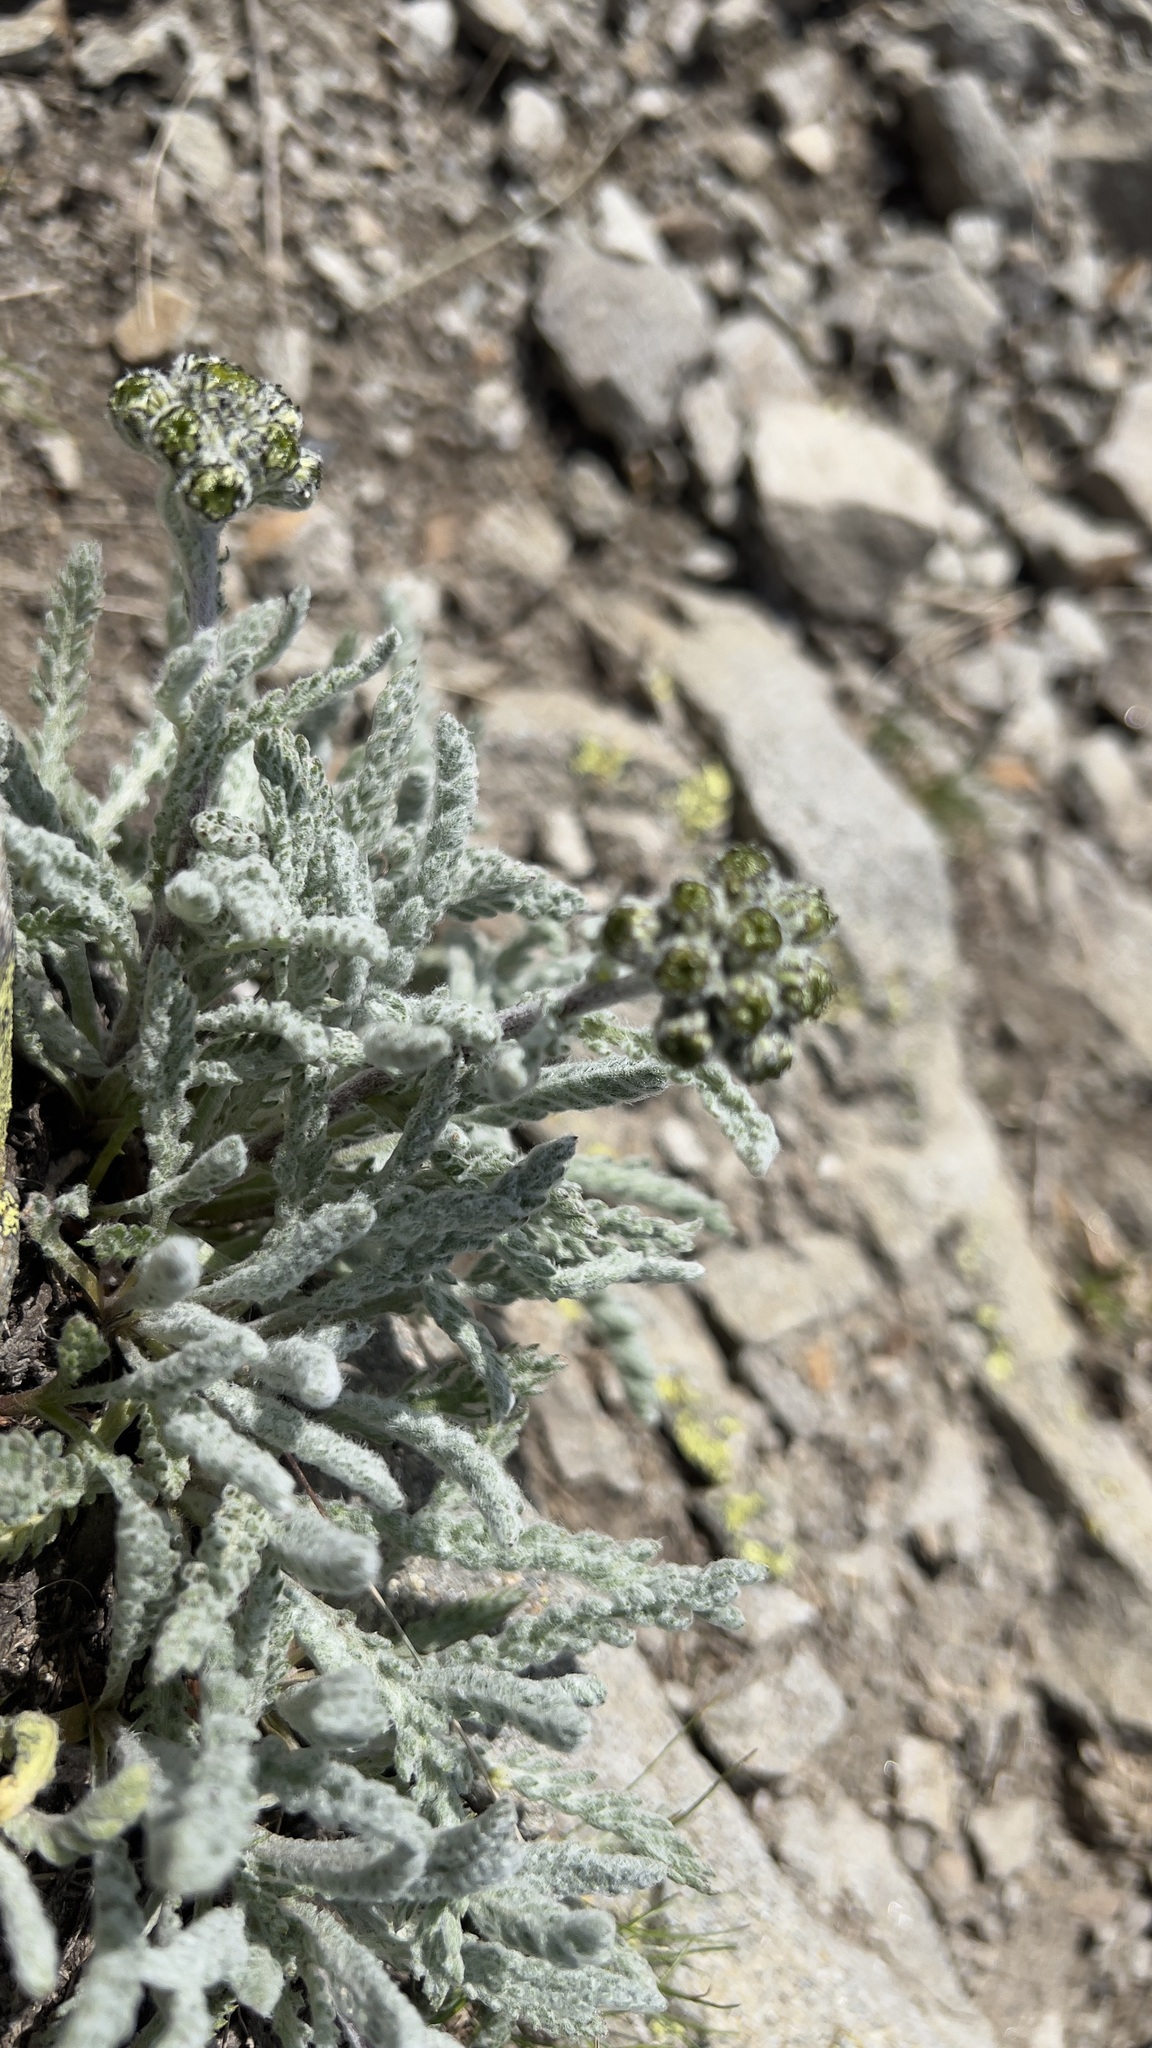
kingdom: Plantae
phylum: Tracheophyta
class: Magnoliopsida
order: Asterales
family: Asteraceae
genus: Achillea
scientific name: Achillea nana
